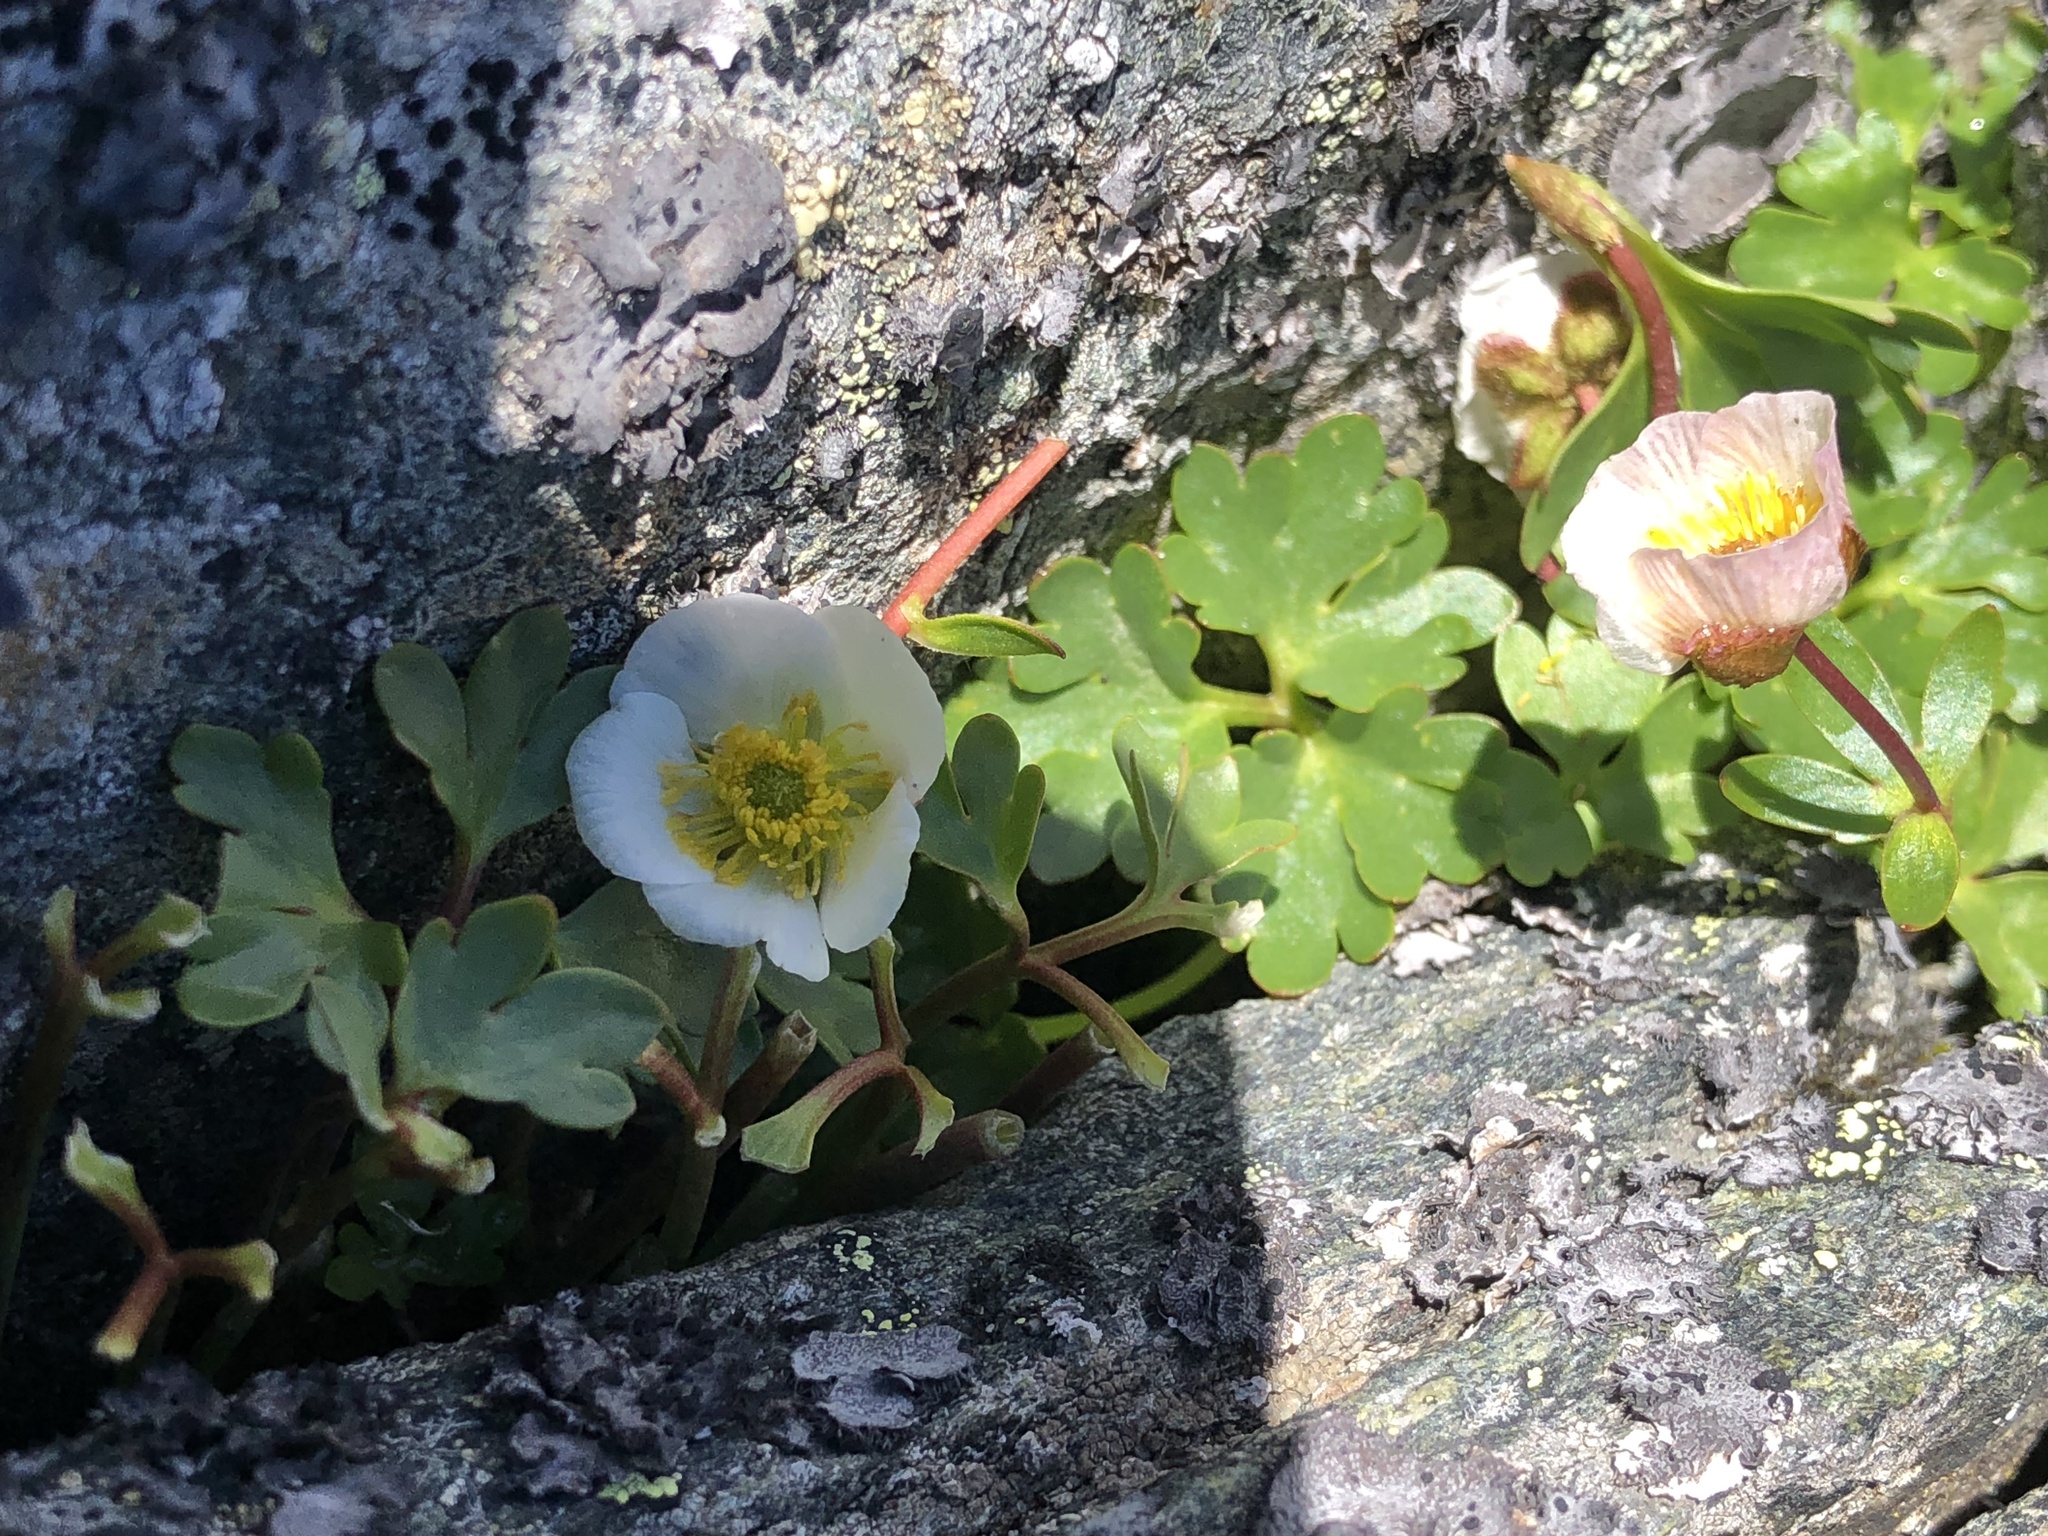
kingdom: Plantae
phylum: Tracheophyta
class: Magnoliopsida
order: Ranunculales
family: Ranunculaceae
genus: Ranunculus
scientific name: Ranunculus glacialis
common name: Glacier buttercup
